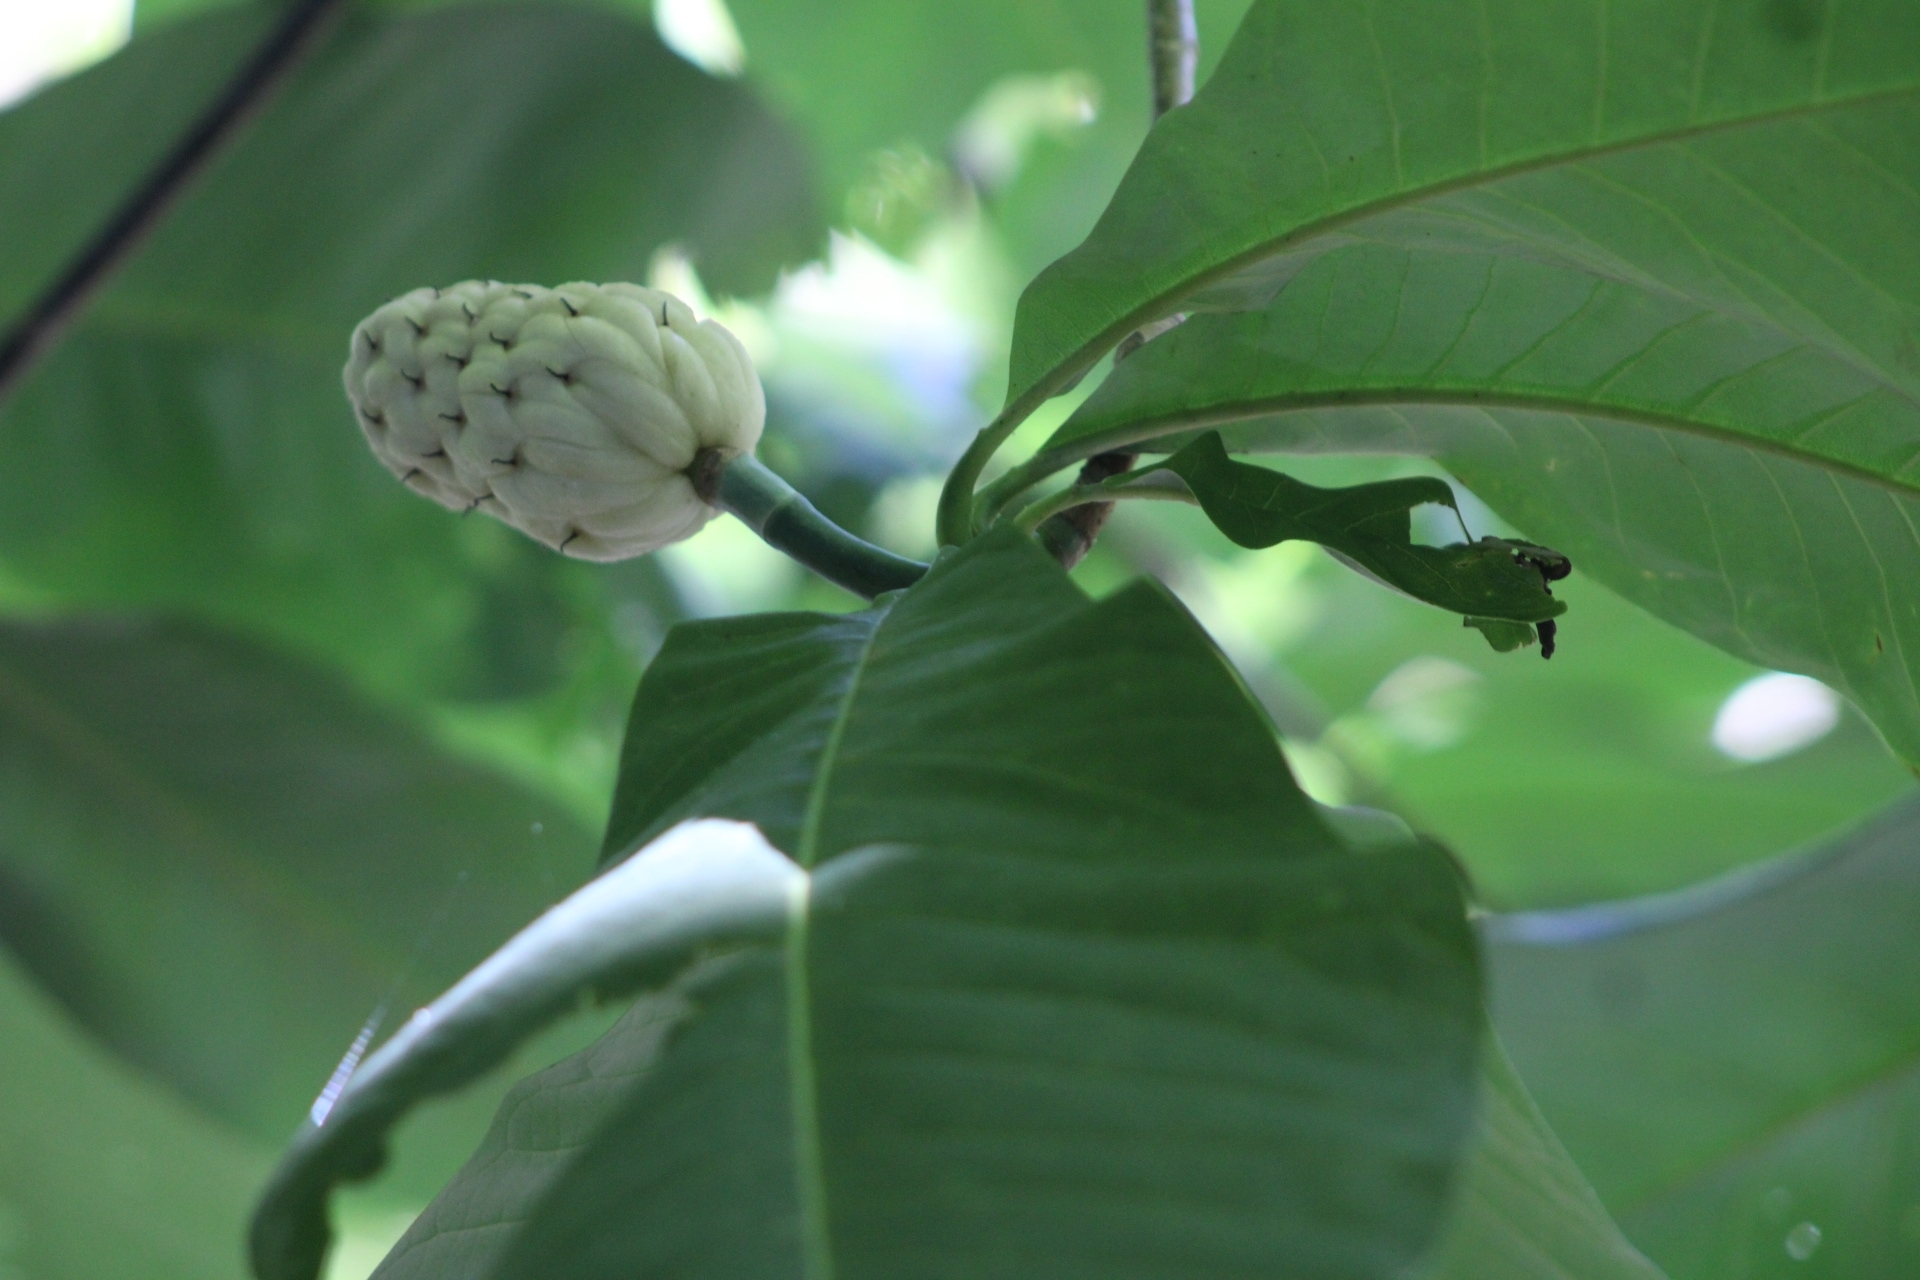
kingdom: Plantae
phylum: Tracheophyta
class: Magnoliopsida
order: Magnoliales
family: Magnoliaceae
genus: Magnolia
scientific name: Magnolia tripetala
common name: Umbrella magnolia
